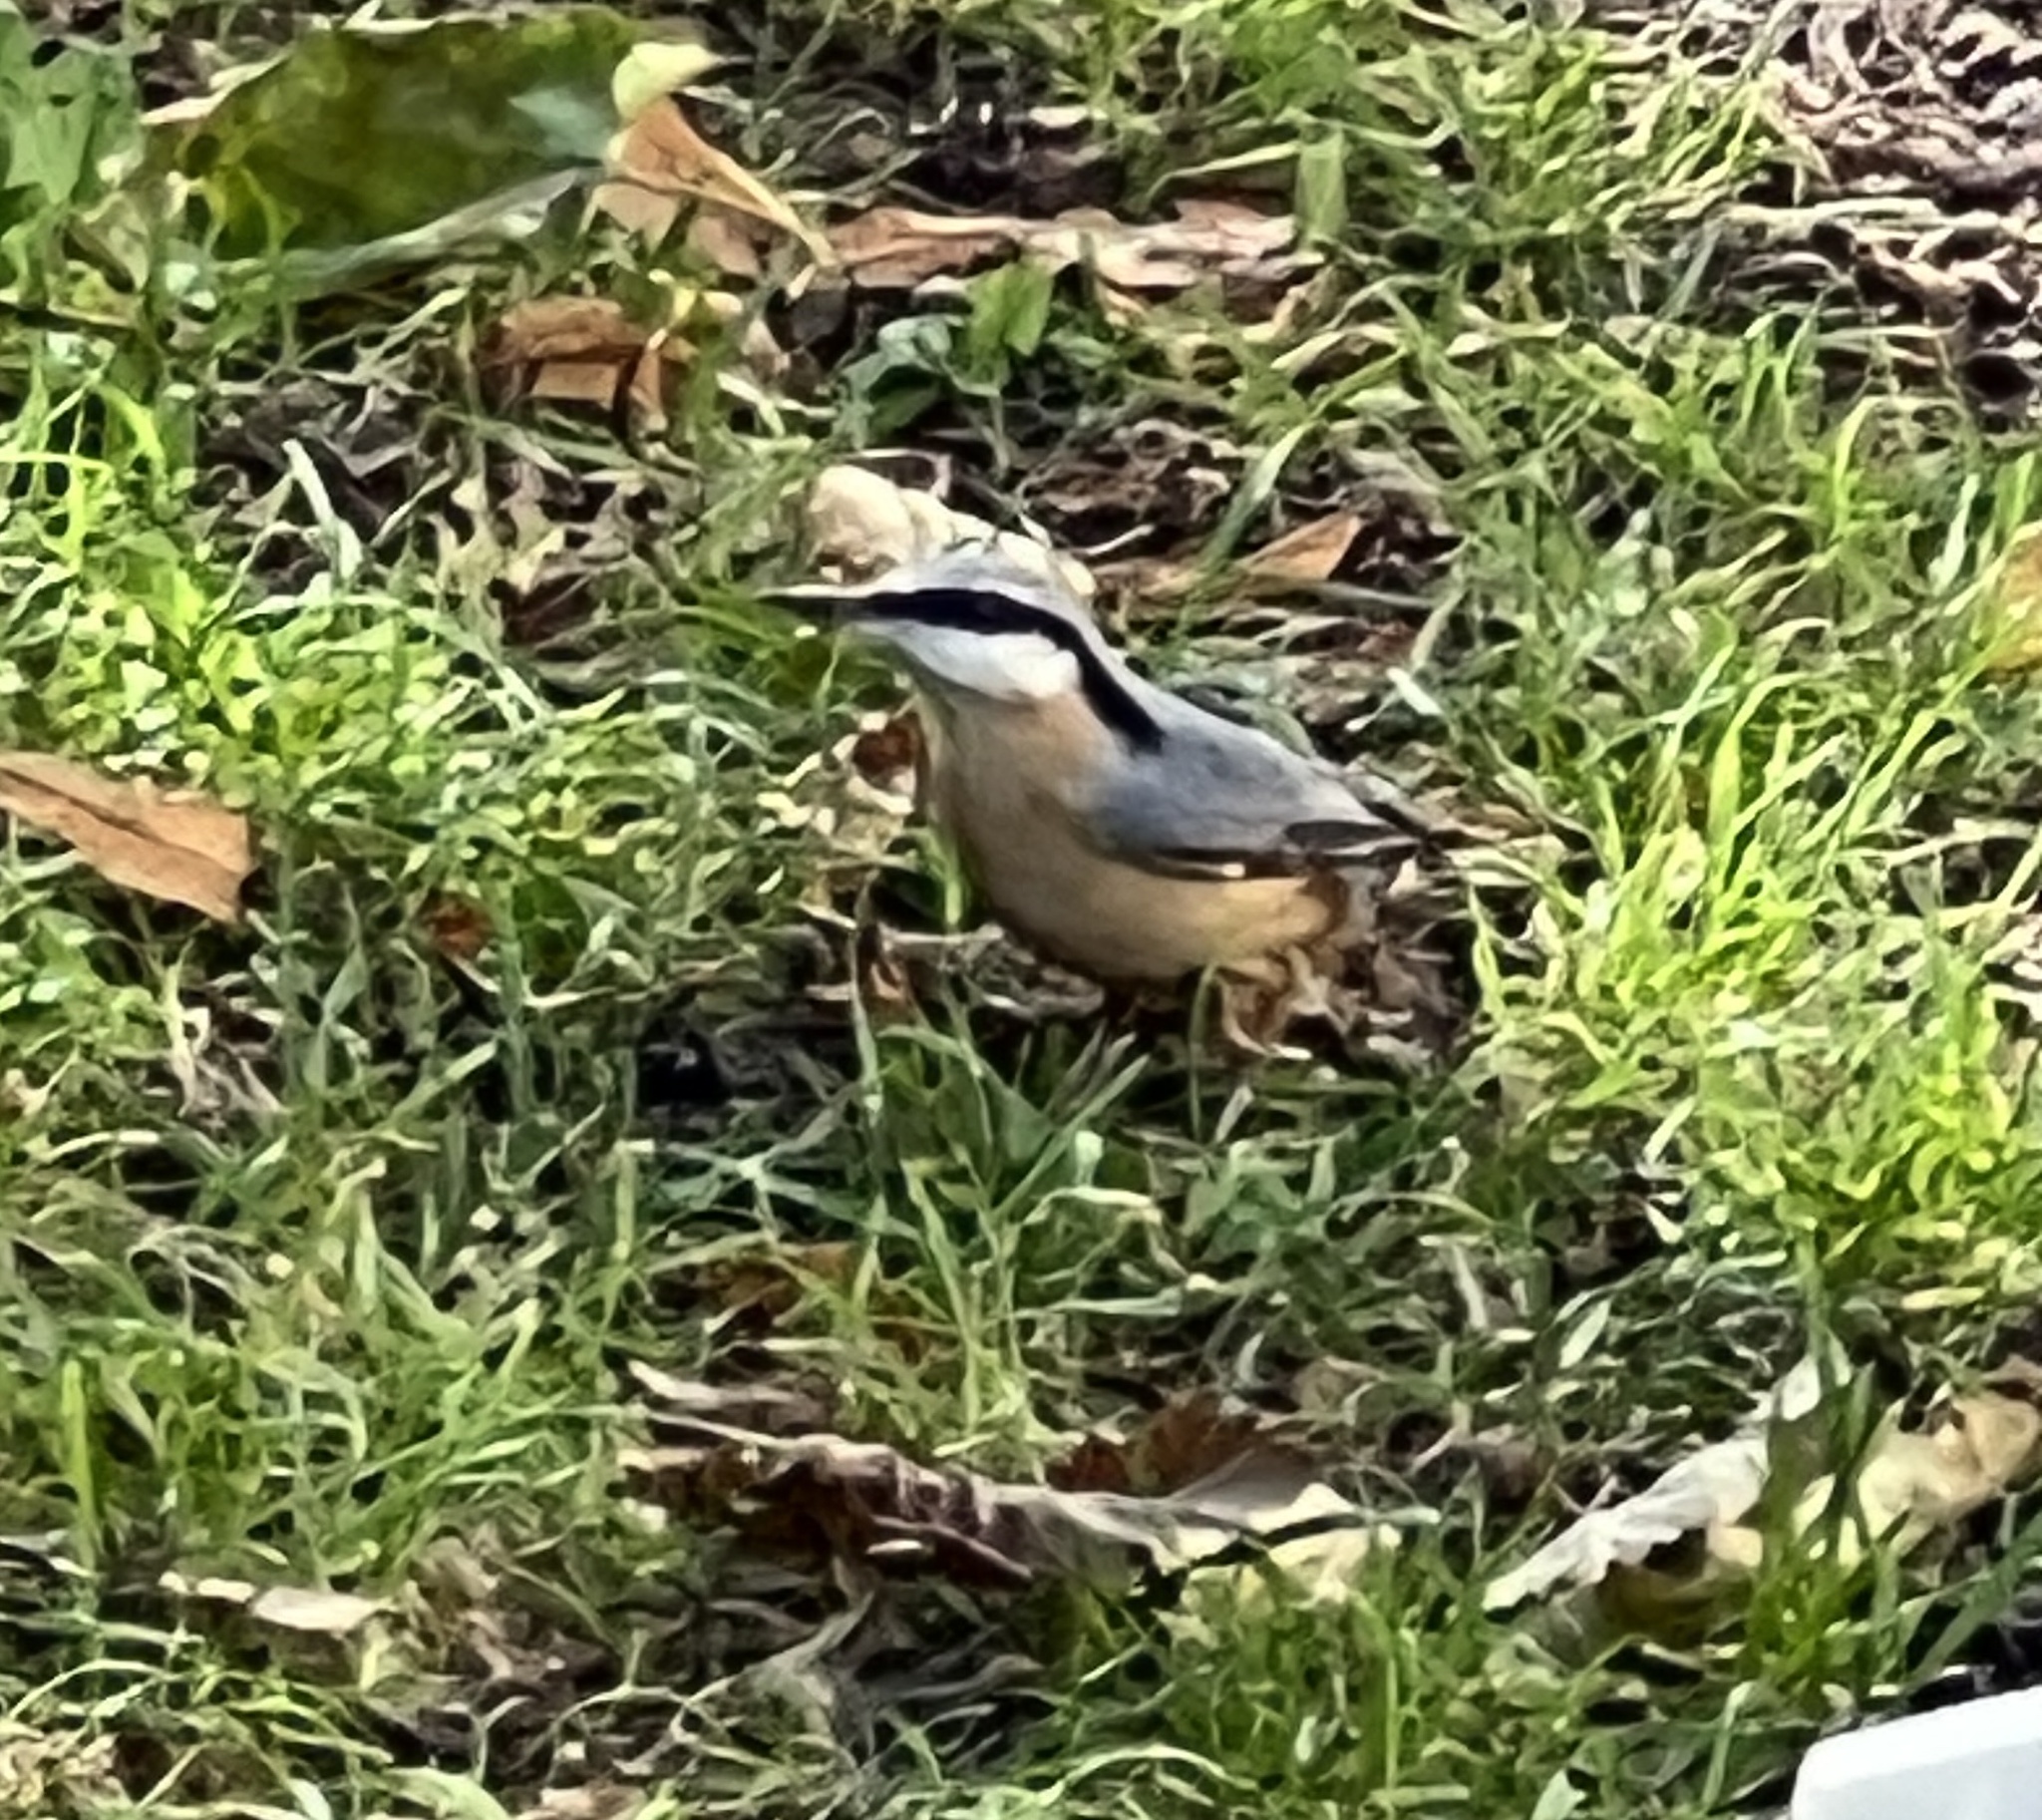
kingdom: Animalia
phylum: Chordata
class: Aves
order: Passeriformes
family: Sittidae
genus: Sitta
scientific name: Sitta europaea
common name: Eurasian nuthatch
